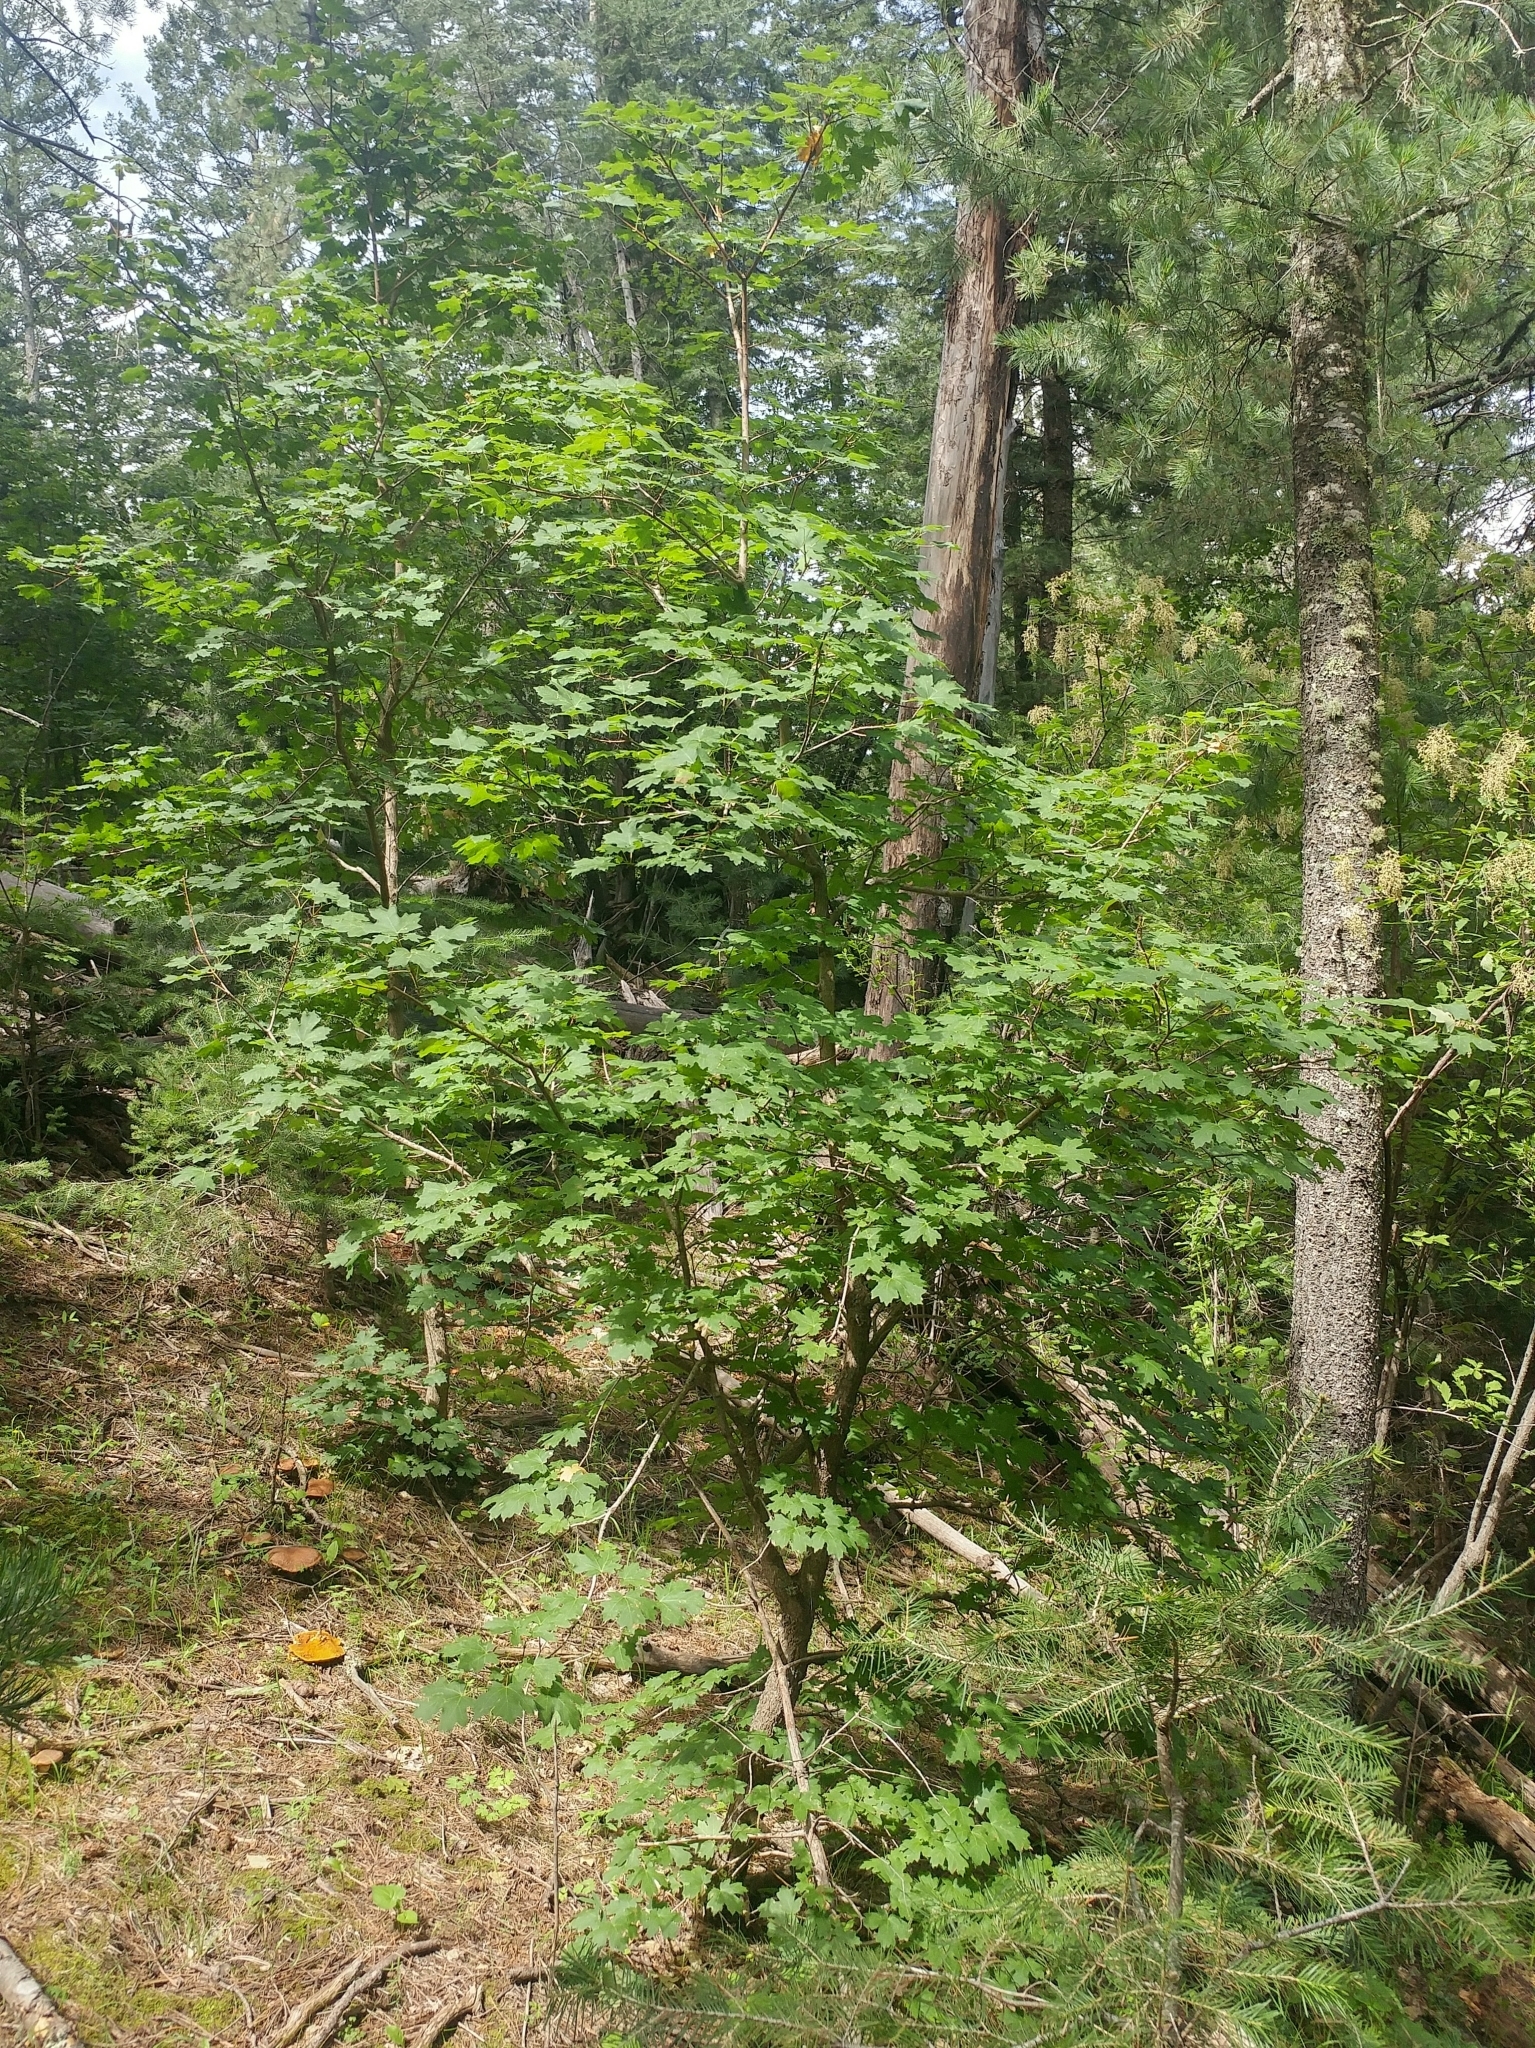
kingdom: Plantae
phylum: Tracheophyta
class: Magnoliopsida
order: Sapindales
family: Sapindaceae
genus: Acer
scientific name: Acer grandidentatum
